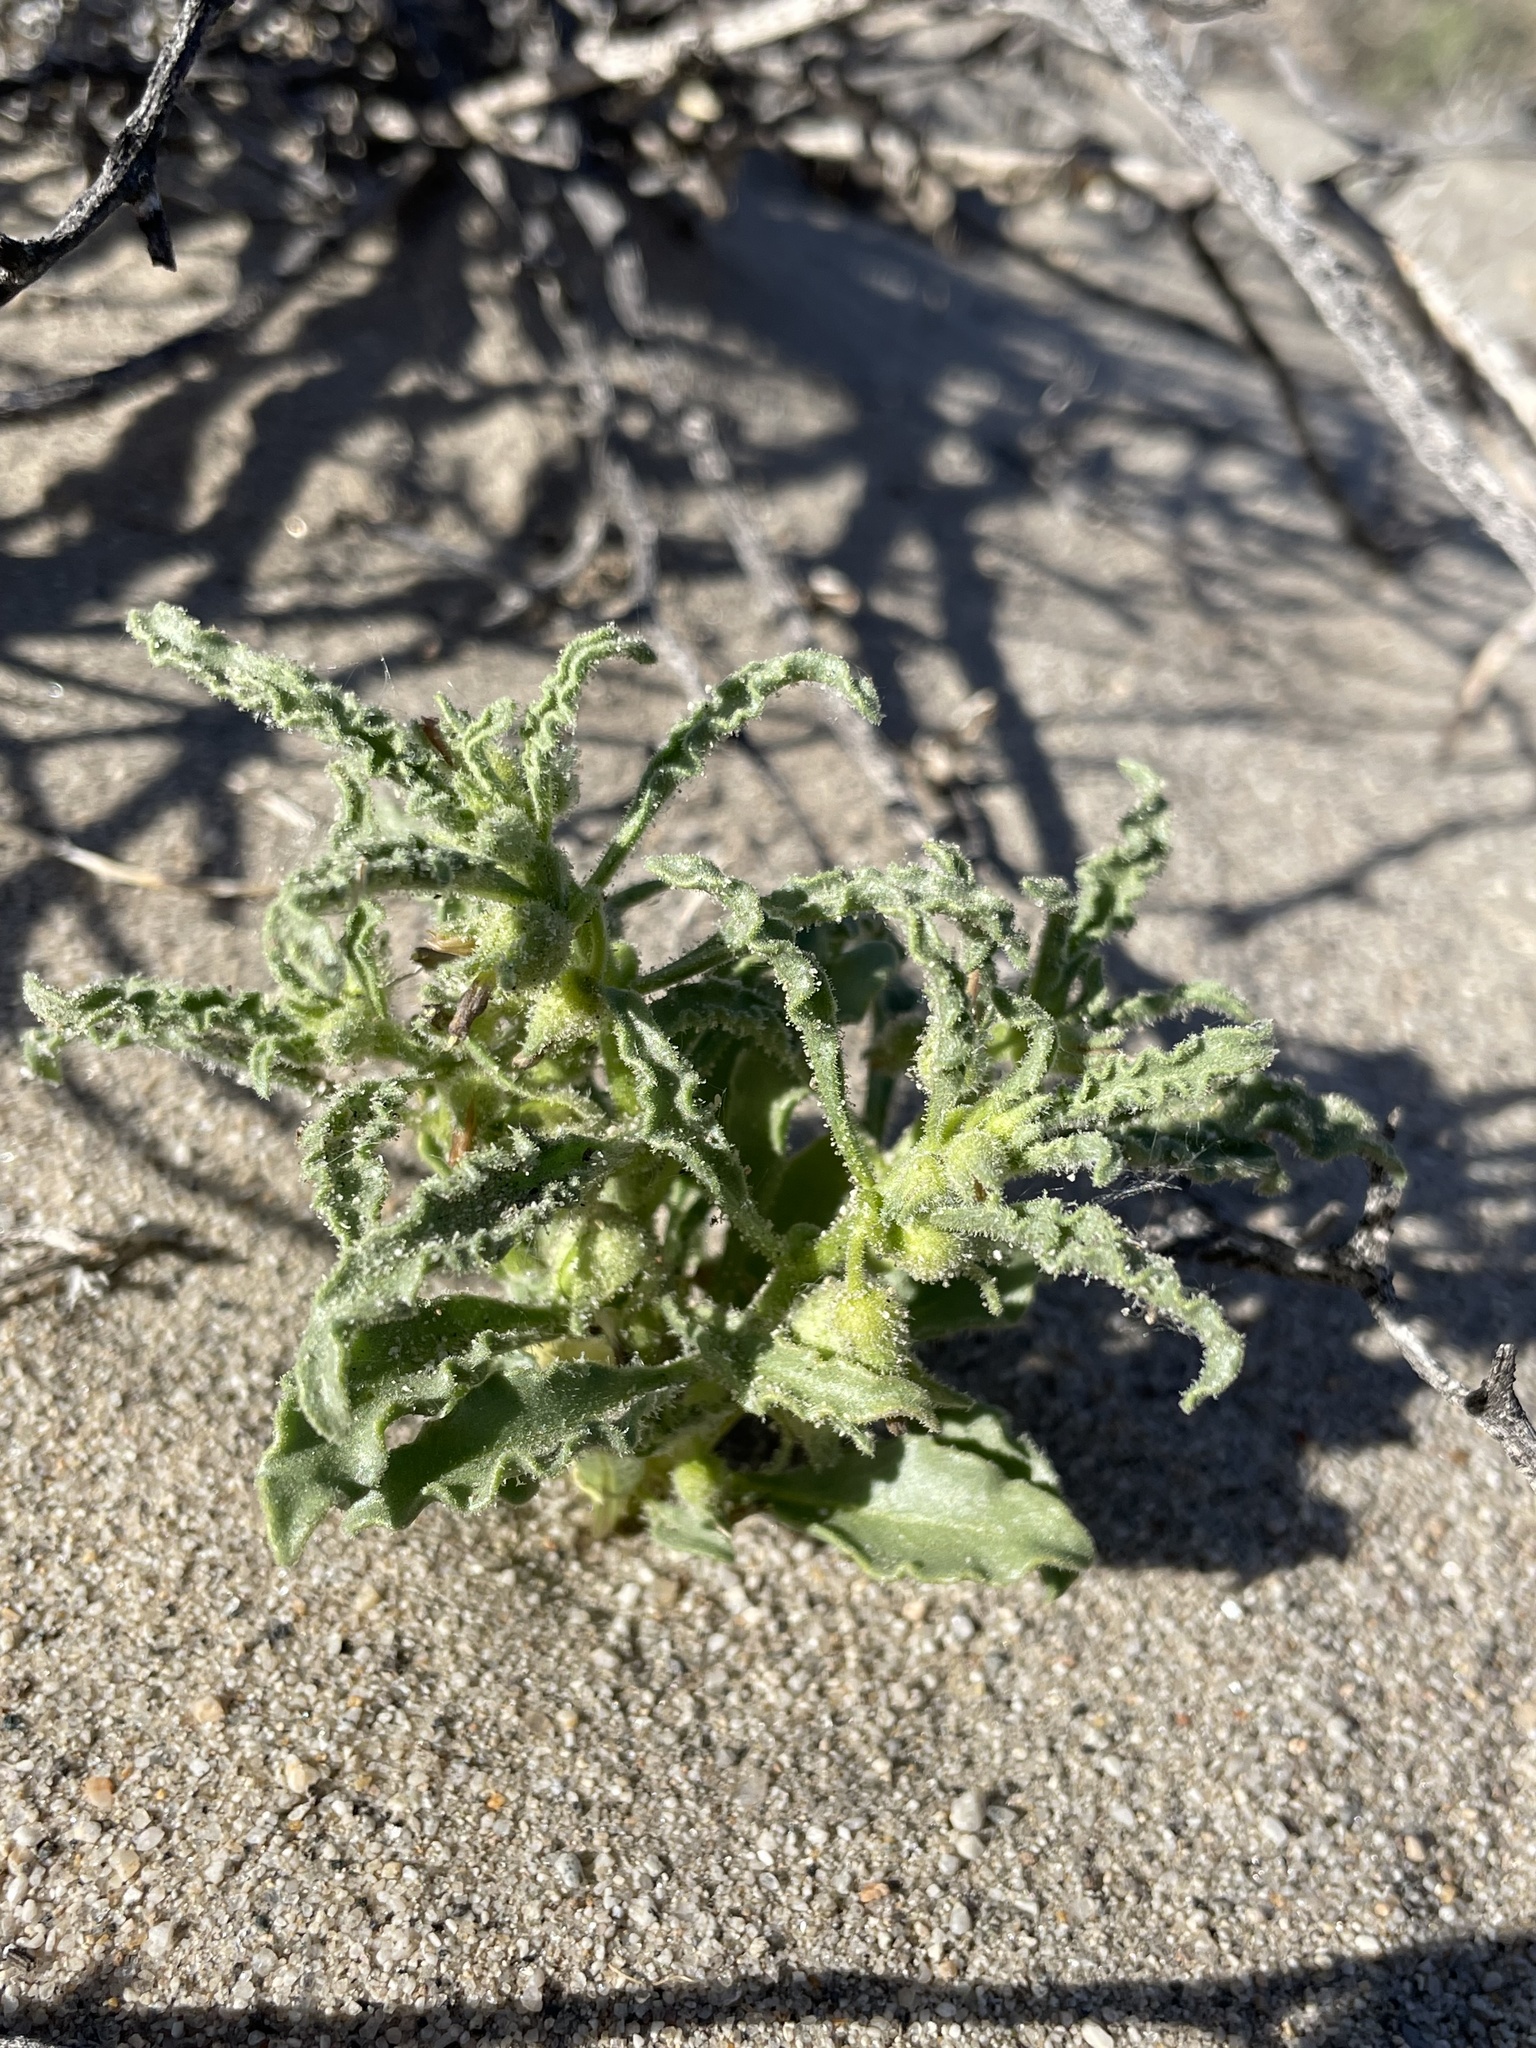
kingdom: Plantae
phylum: Tracheophyta
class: Magnoliopsida
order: Solanales
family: Solanaceae
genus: Oryctes
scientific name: Oryctes nevadensis
